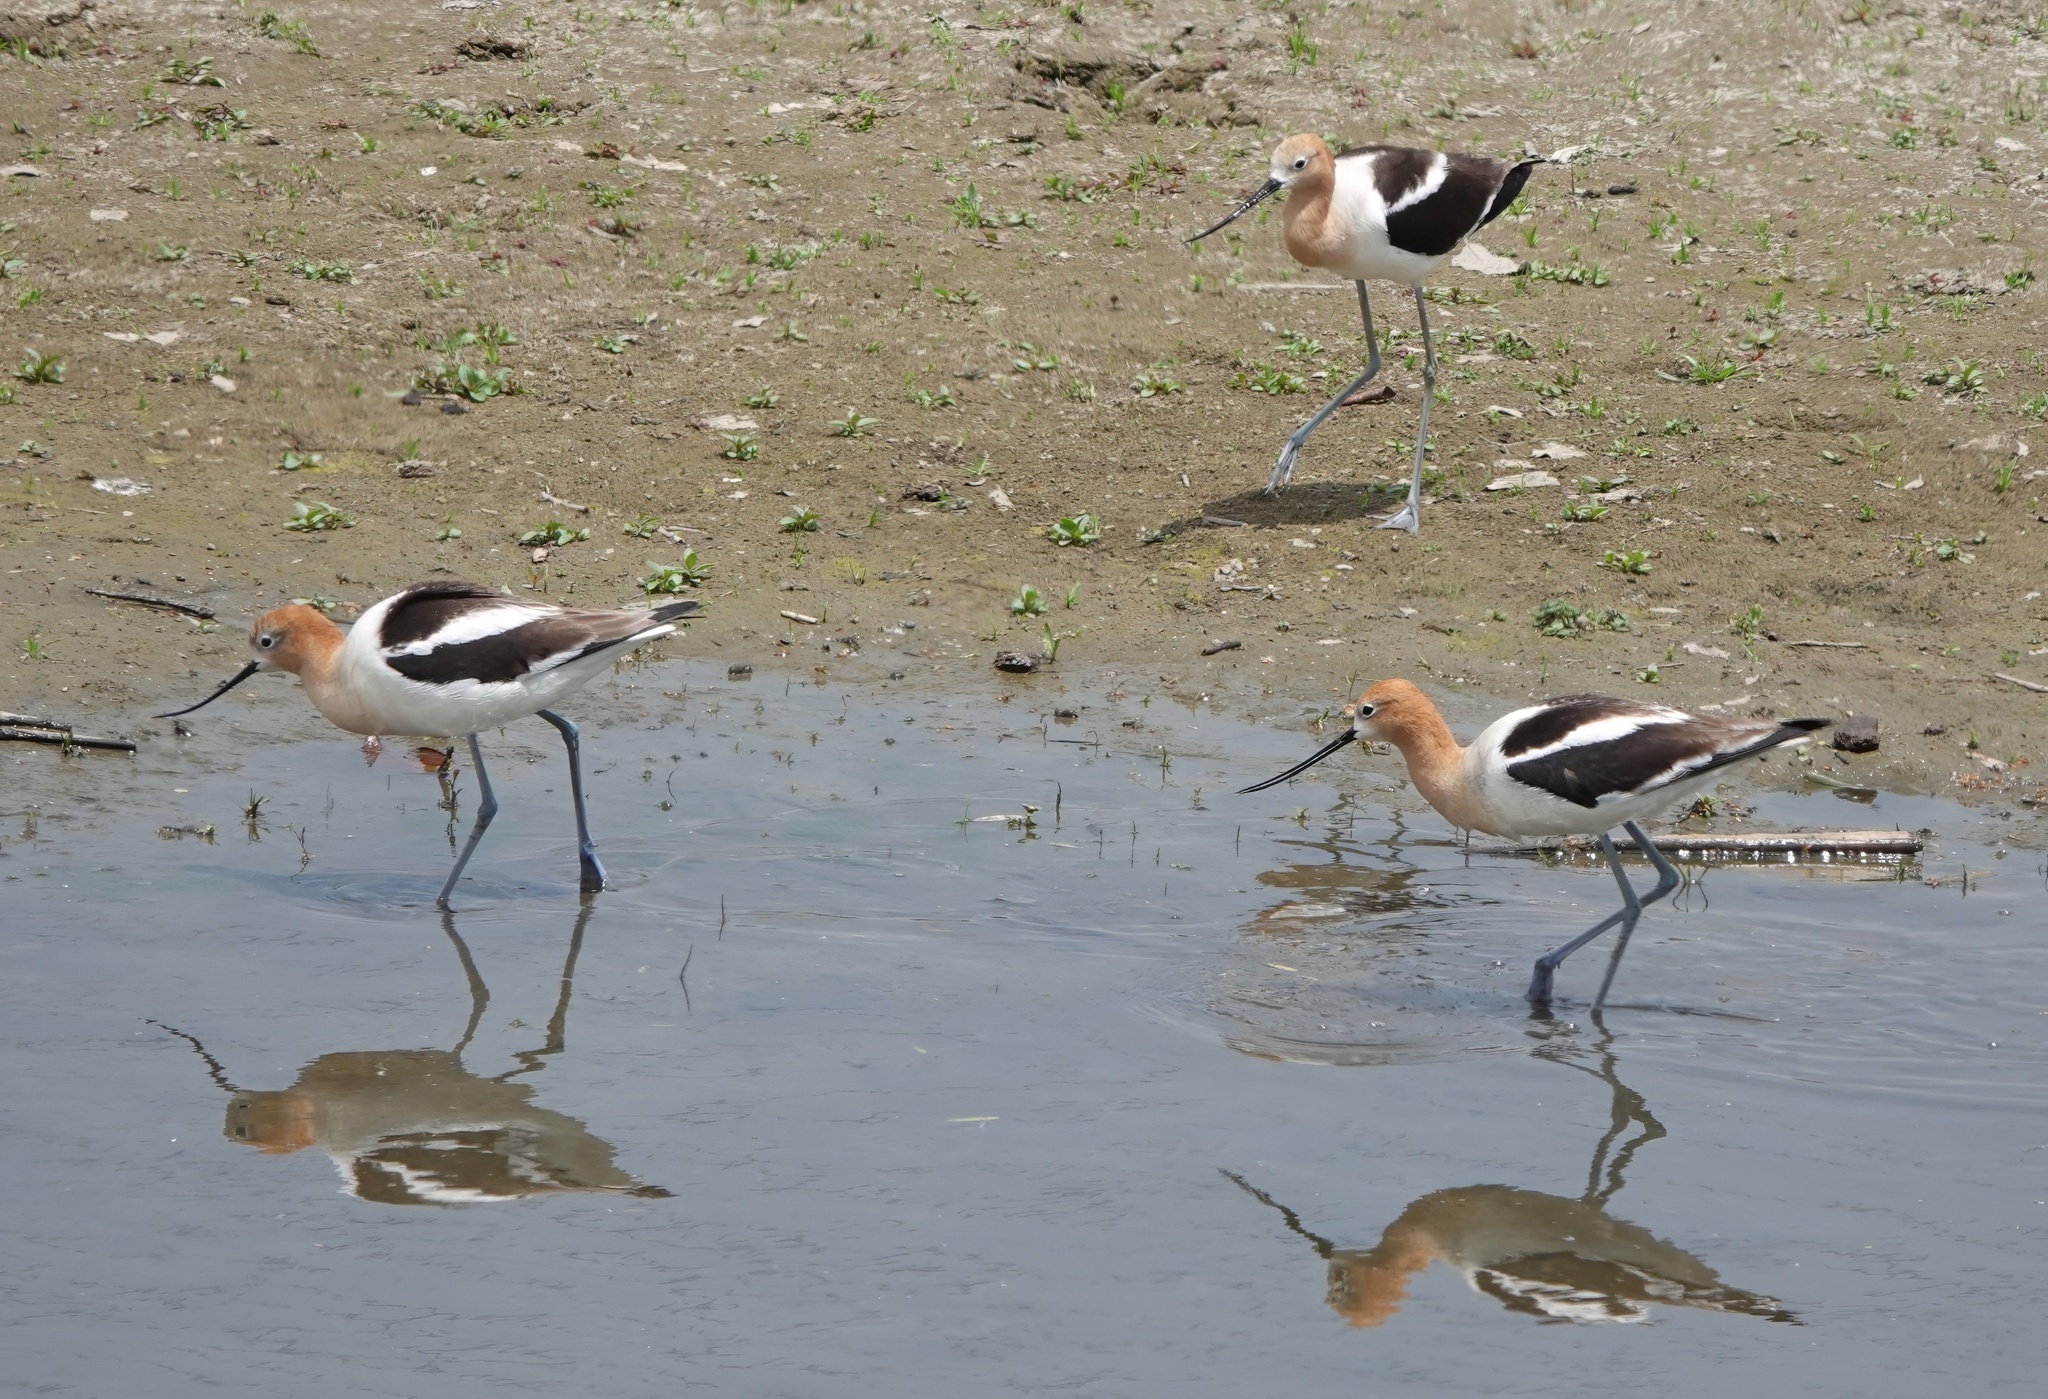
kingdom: Animalia
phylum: Chordata
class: Aves
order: Charadriiformes
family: Recurvirostridae
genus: Recurvirostra
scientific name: Recurvirostra americana
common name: American avocet
